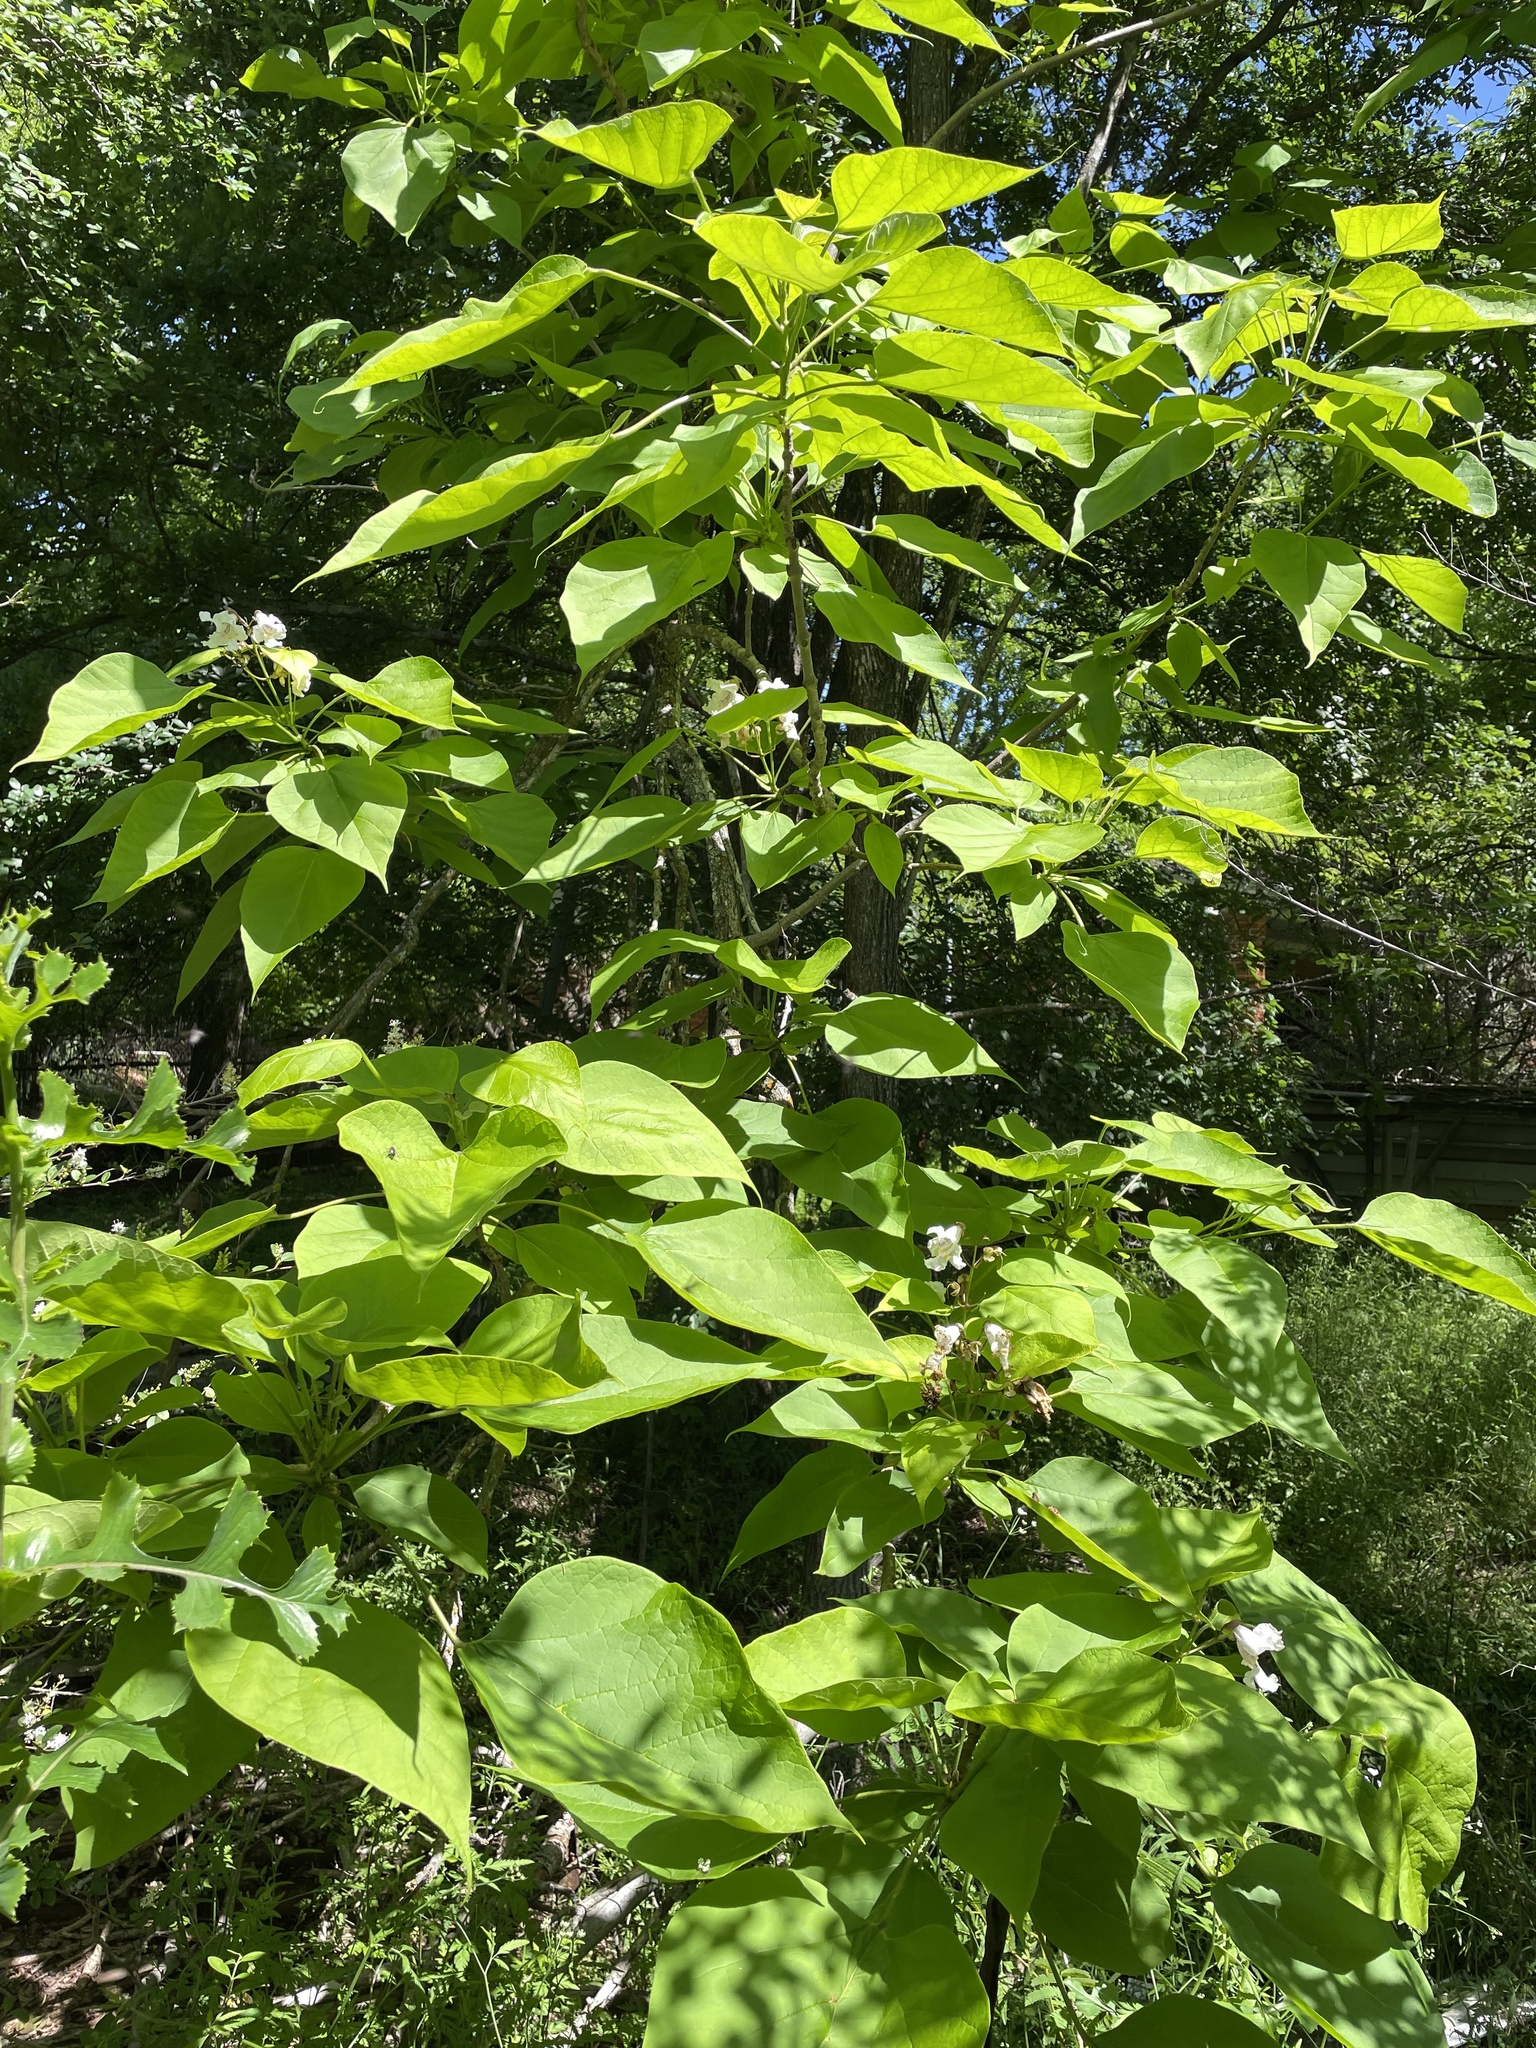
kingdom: Plantae
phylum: Tracheophyta
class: Magnoliopsida
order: Lamiales
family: Bignoniaceae
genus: Catalpa
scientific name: Catalpa bignonioides
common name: Southern catalpa
